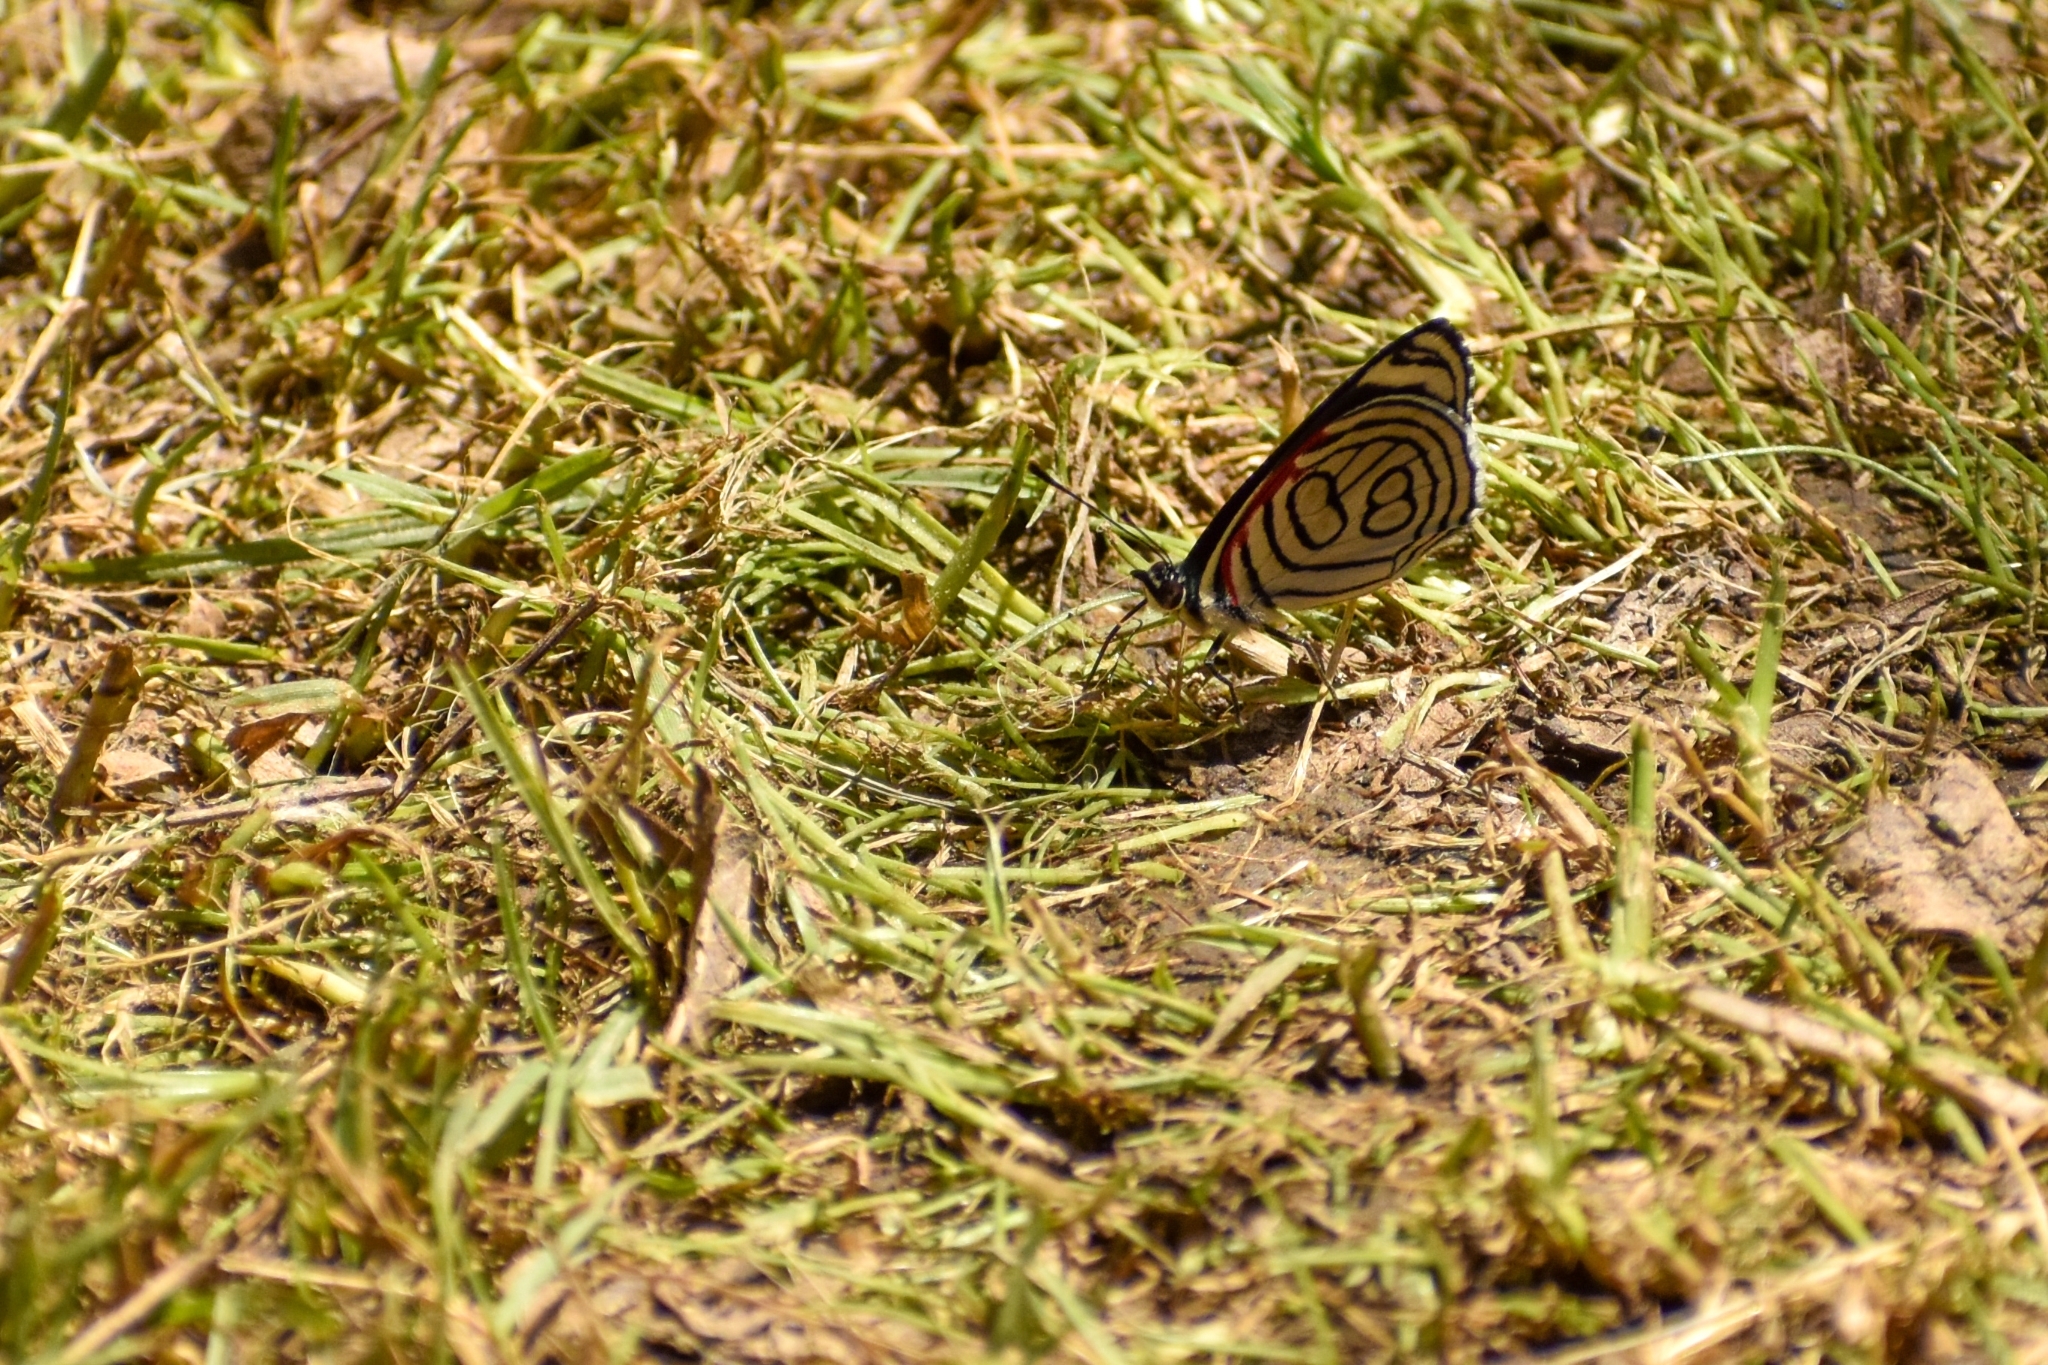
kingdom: Animalia
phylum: Arthropoda
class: Insecta
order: Lepidoptera
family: Nymphalidae
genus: Diaethria
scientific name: Diaethria candrena
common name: Number eighty
